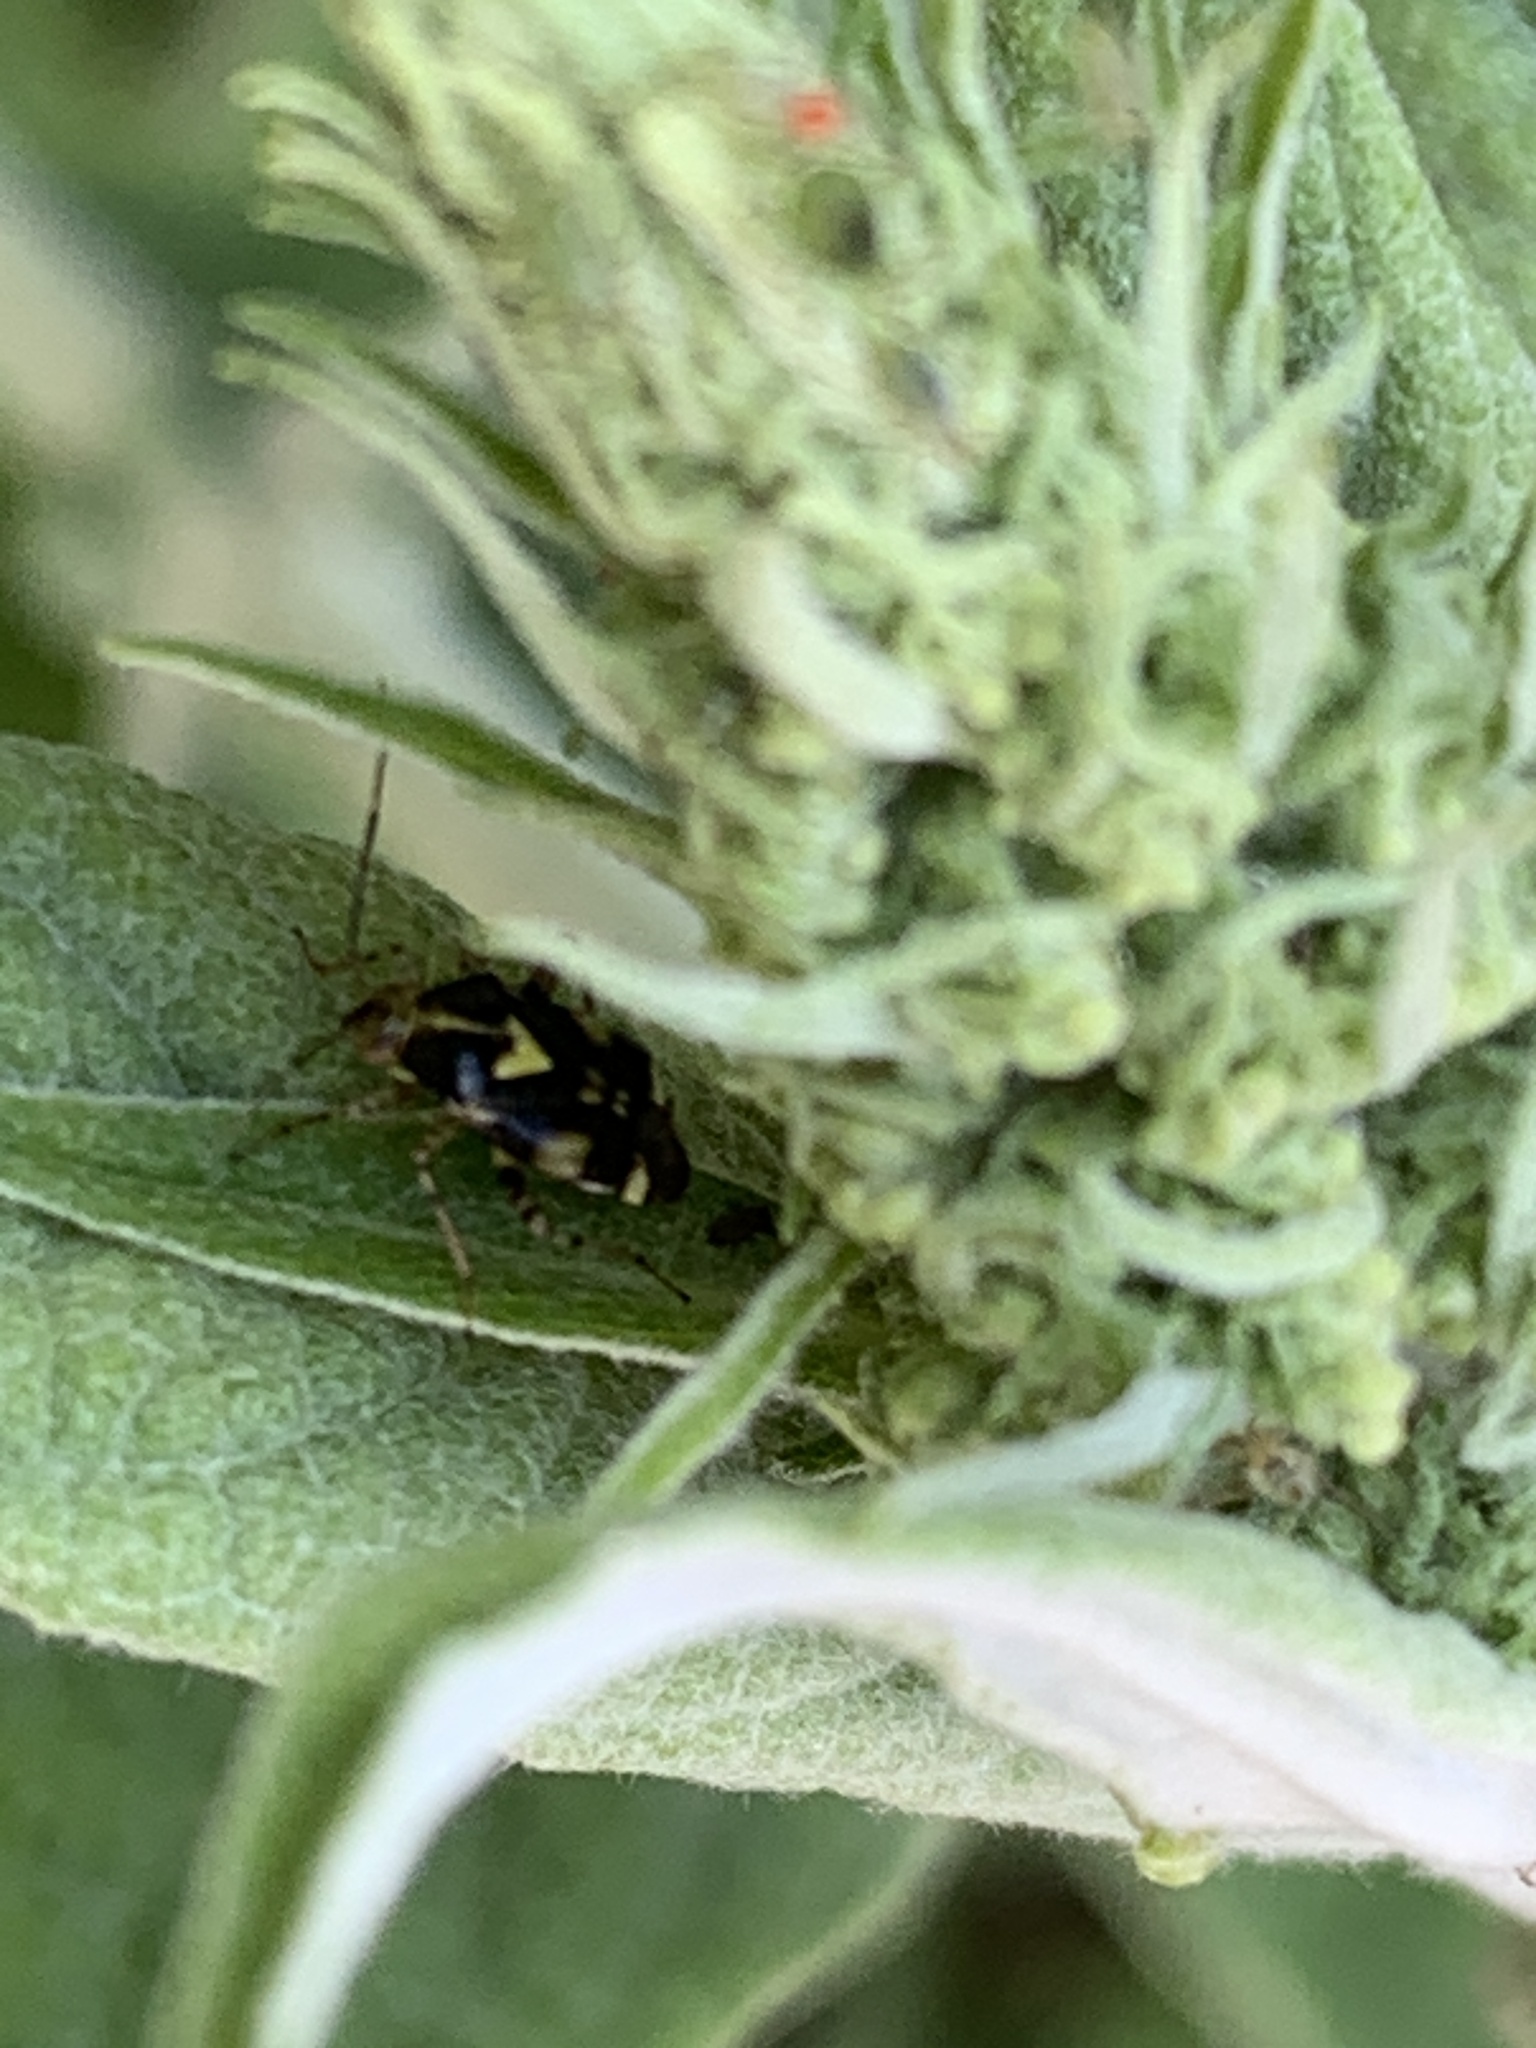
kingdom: Animalia
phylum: Arthropoda
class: Insecta
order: Hemiptera
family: Miridae
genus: Liocoris
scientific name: Liocoris tripustulatus
